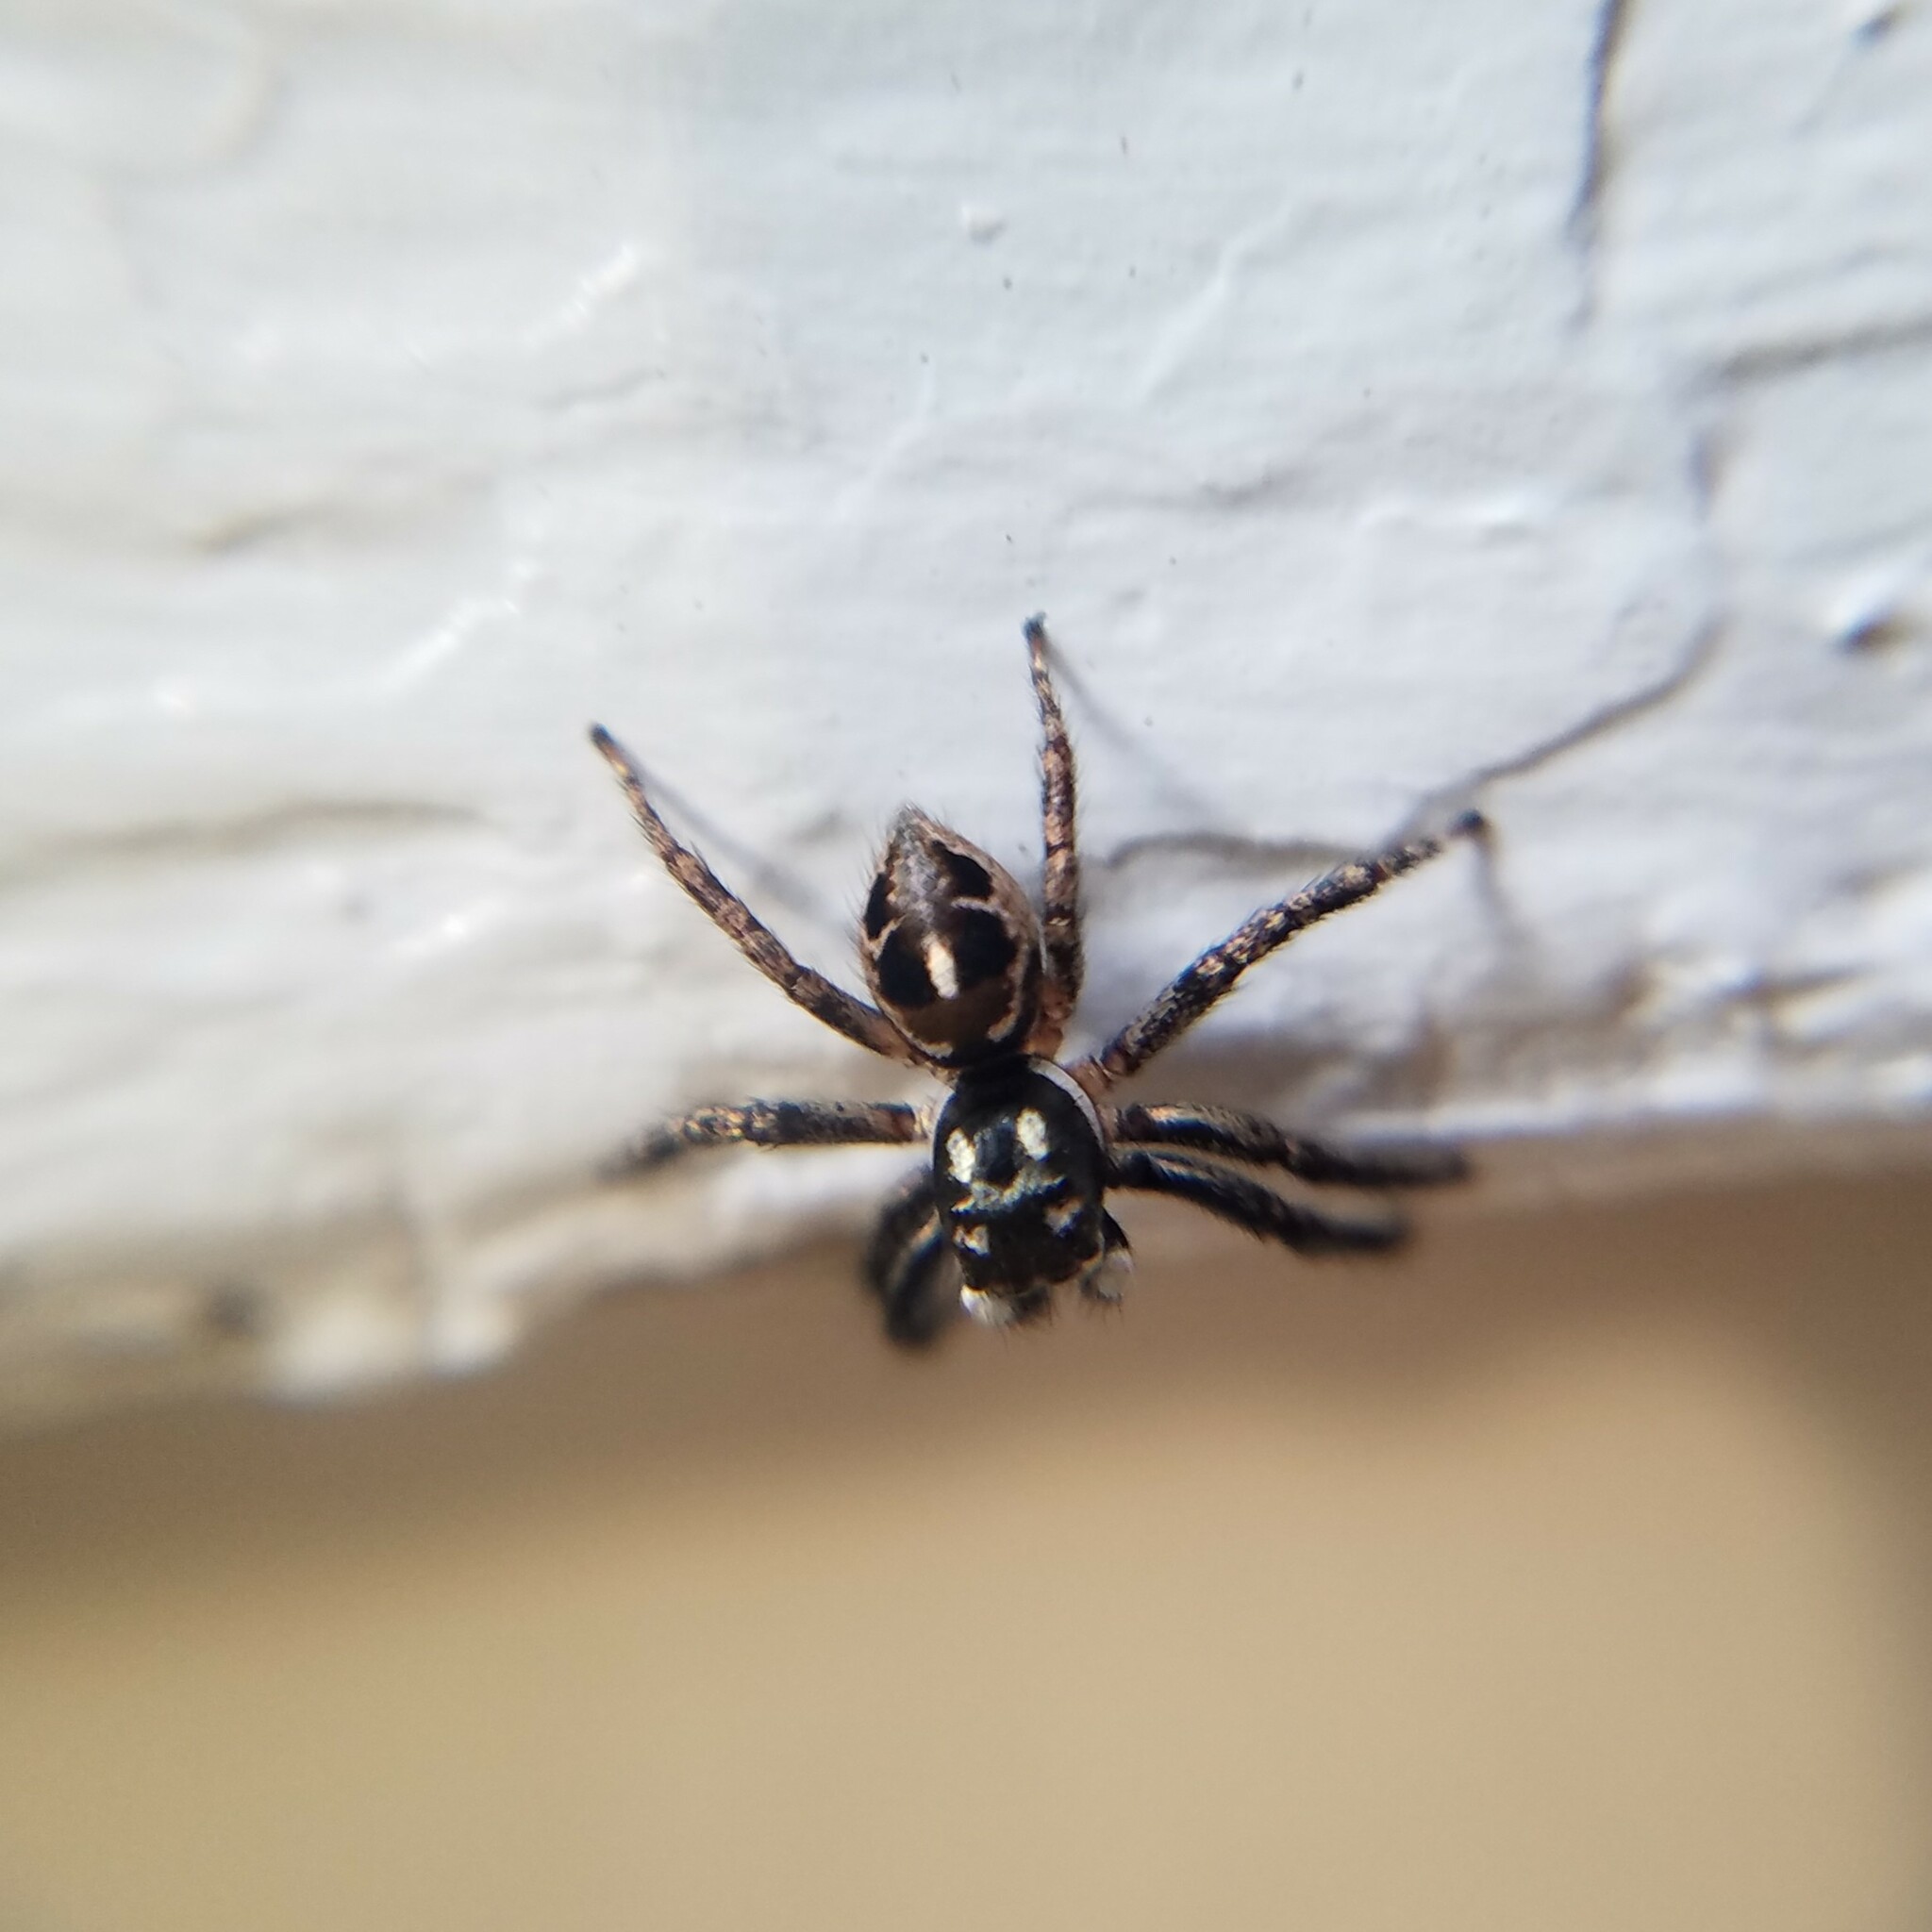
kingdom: Animalia
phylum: Arthropoda
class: Arachnida
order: Araneae
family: Salticidae
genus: Anasaitis
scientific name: Anasaitis canosa
